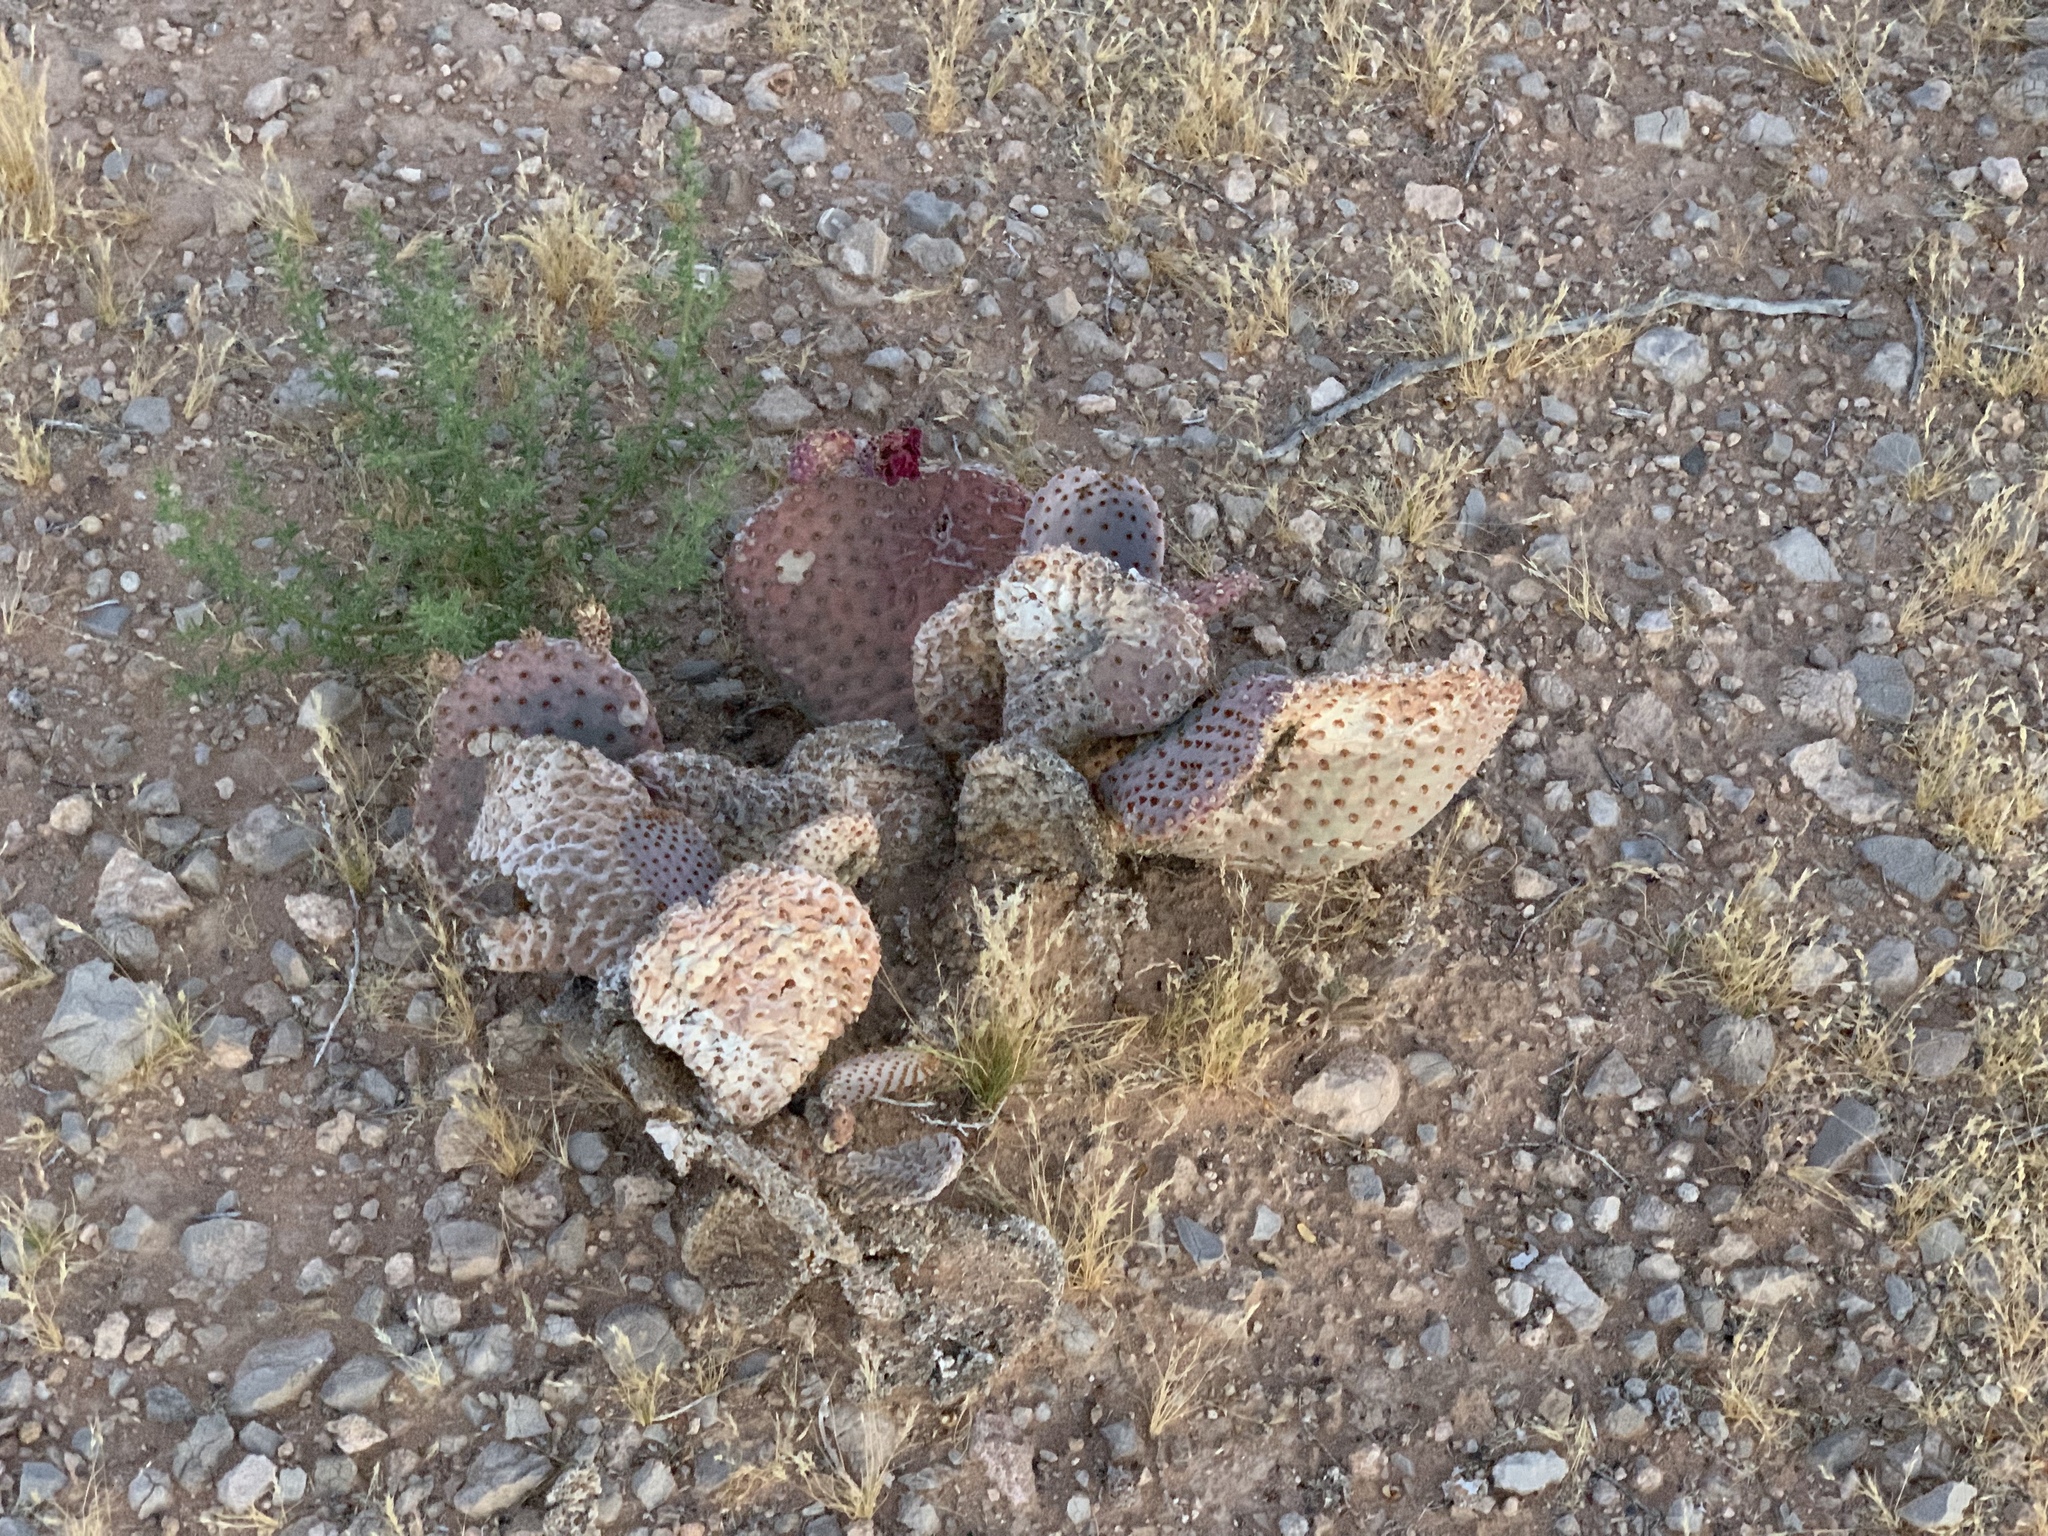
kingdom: Plantae
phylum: Tracheophyta
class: Magnoliopsida
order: Caryophyllales
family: Cactaceae
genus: Opuntia
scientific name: Opuntia basilaris
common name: Beavertail prickly-pear
